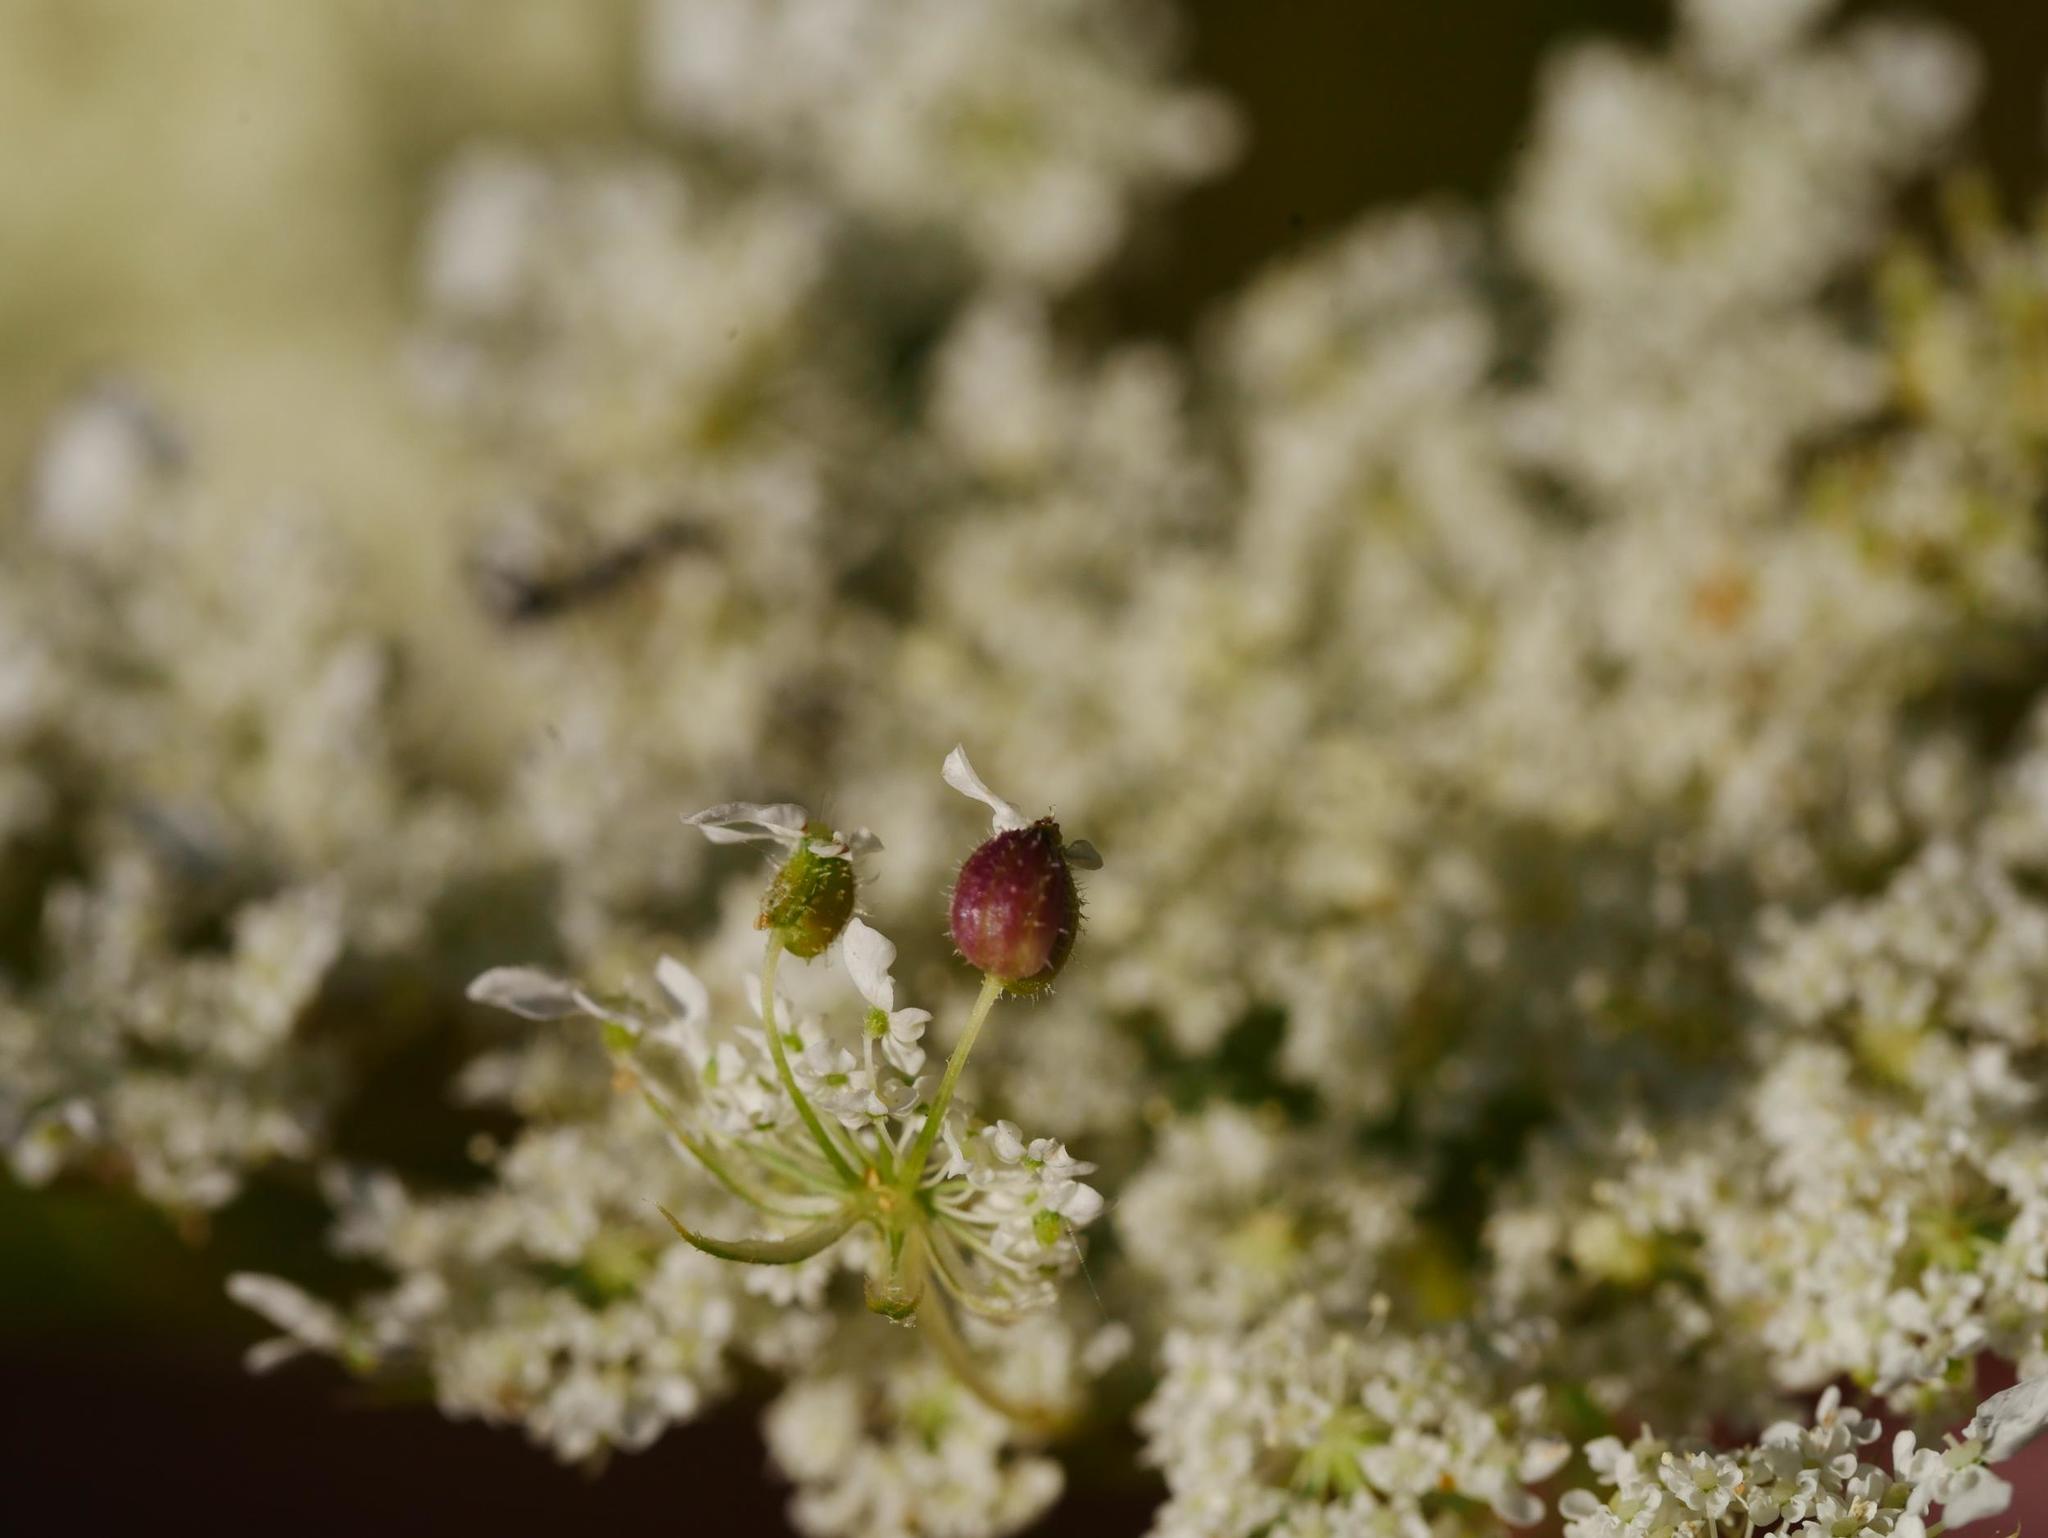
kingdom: Animalia
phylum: Arthropoda
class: Insecta
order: Diptera
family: Cecidomyiidae
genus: Kiefferia
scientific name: Kiefferia pericarpiicola
